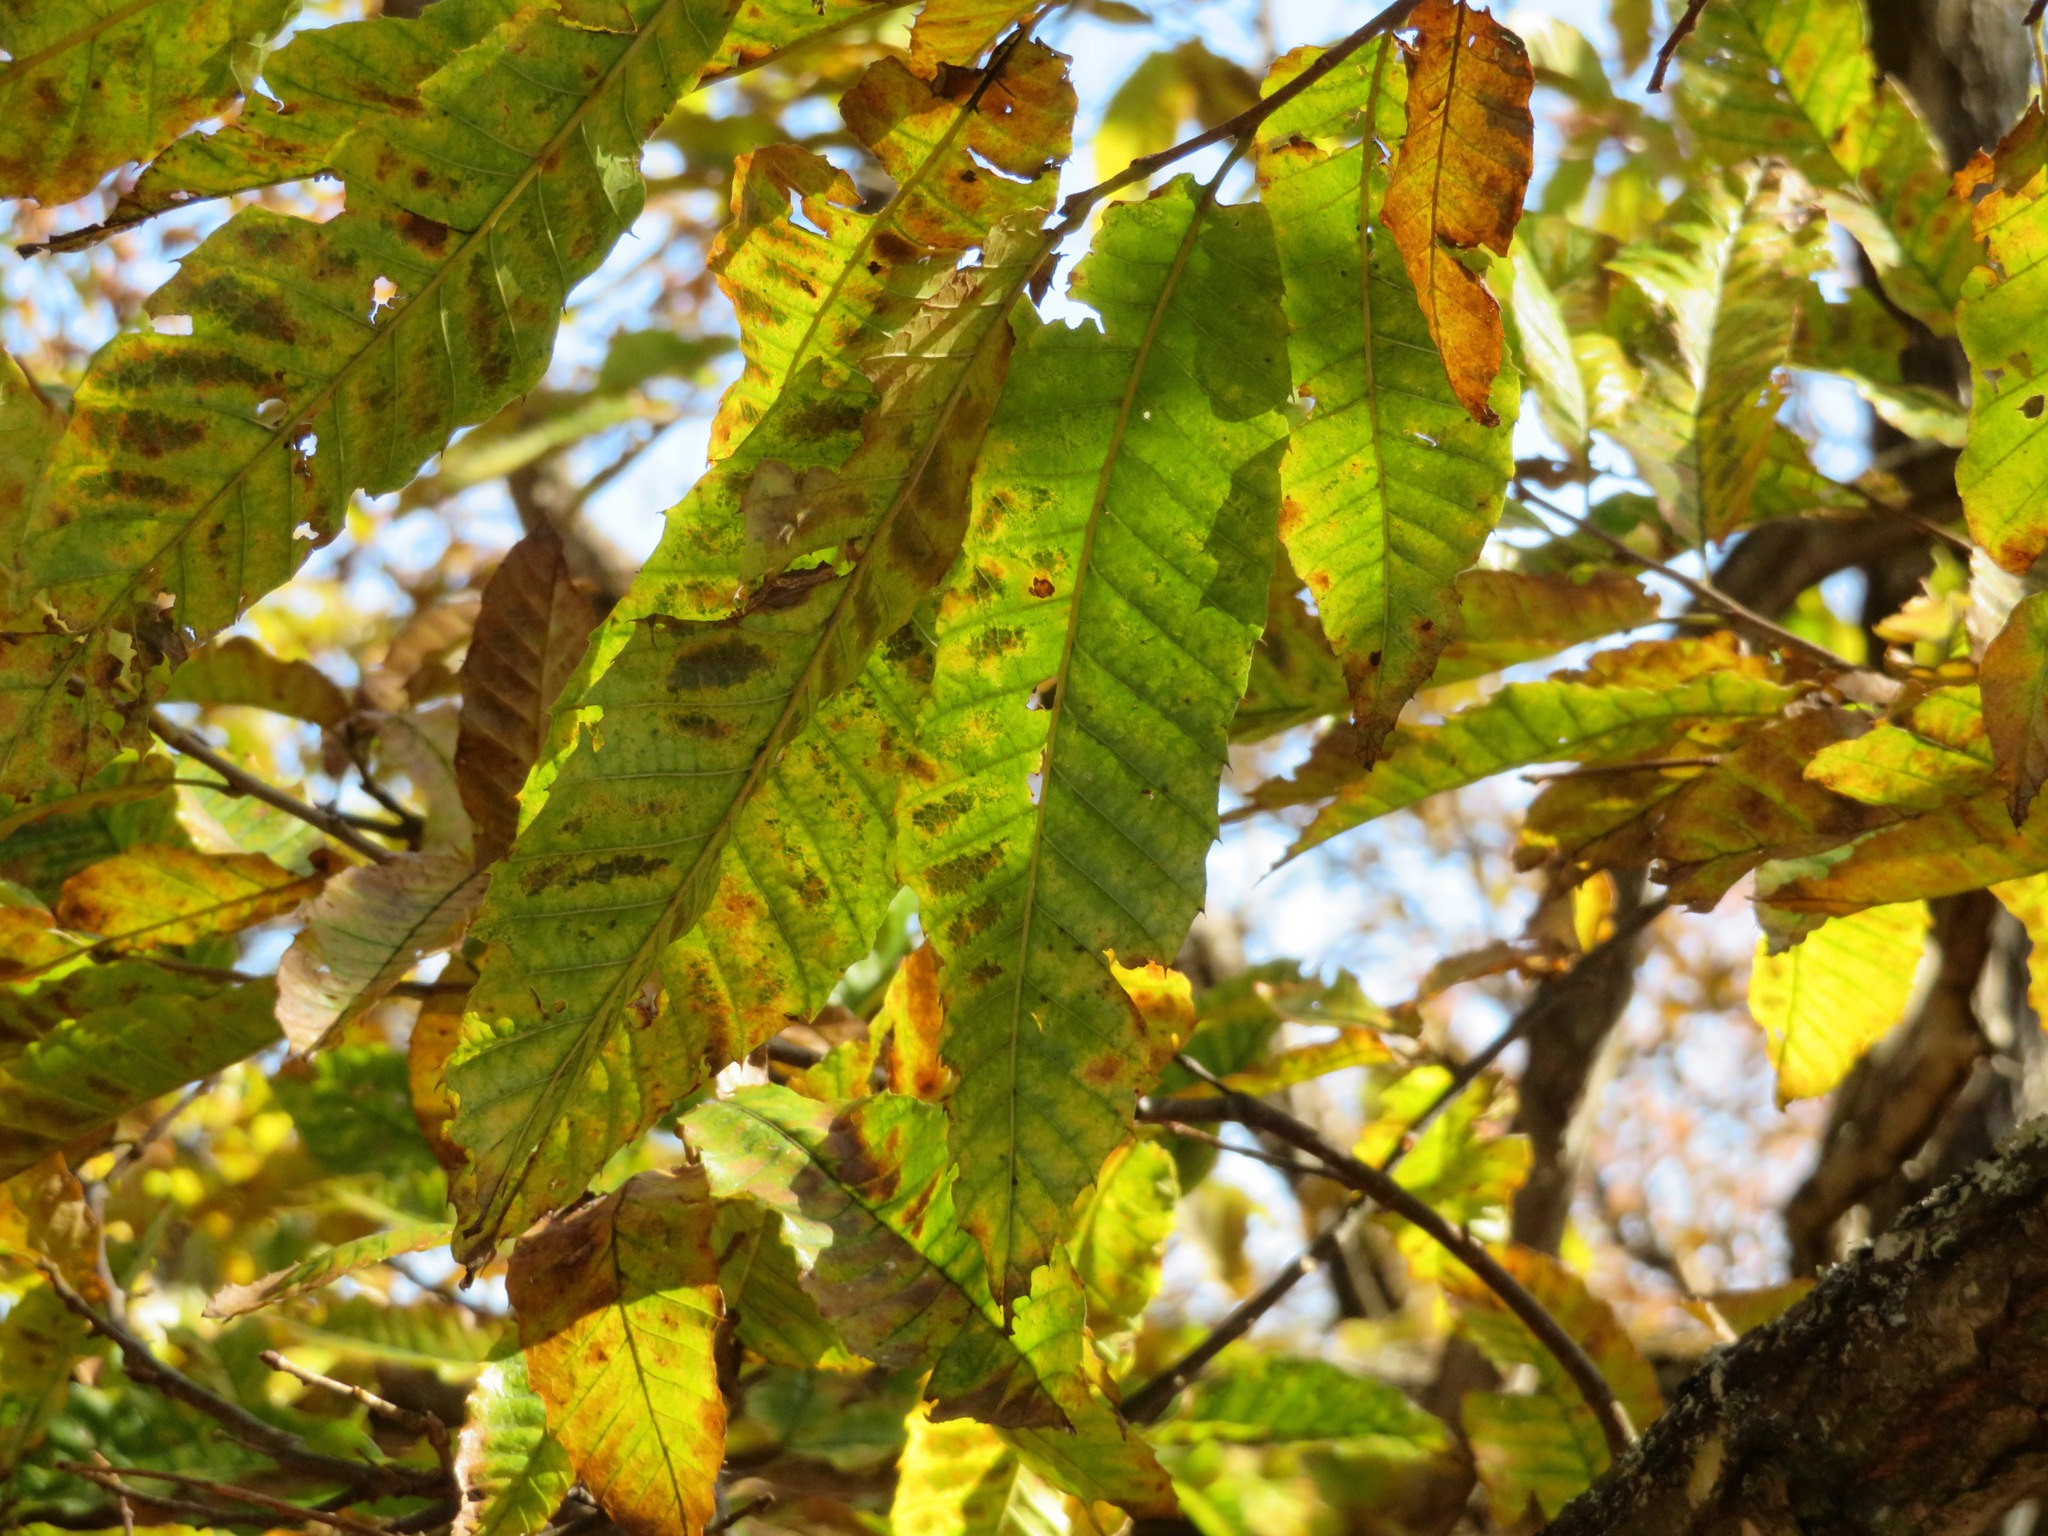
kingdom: Plantae
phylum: Tracheophyta
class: Magnoliopsida
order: Fagales
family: Fagaceae
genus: Castanea
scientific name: Castanea crenata
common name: Japanese chestnut
